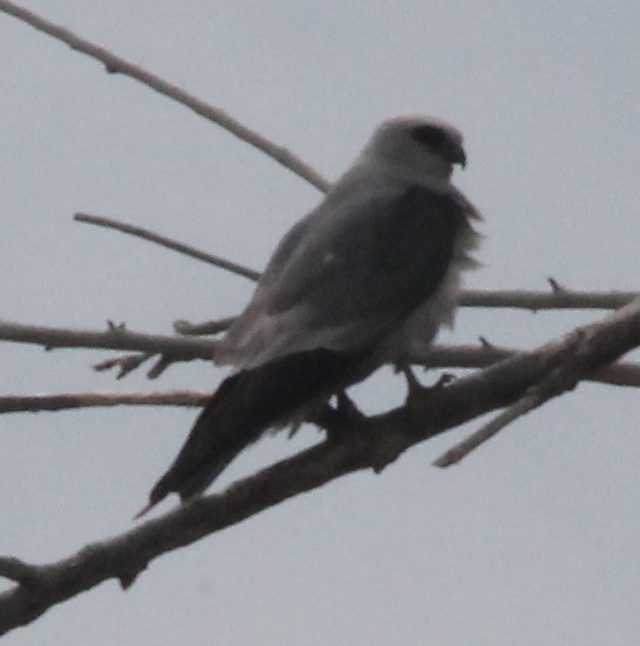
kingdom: Animalia
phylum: Chordata
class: Aves
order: Accipitriformes
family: Accipitridae
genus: Ictinia
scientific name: Ictinia mississippiensis
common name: Mississippi kite
